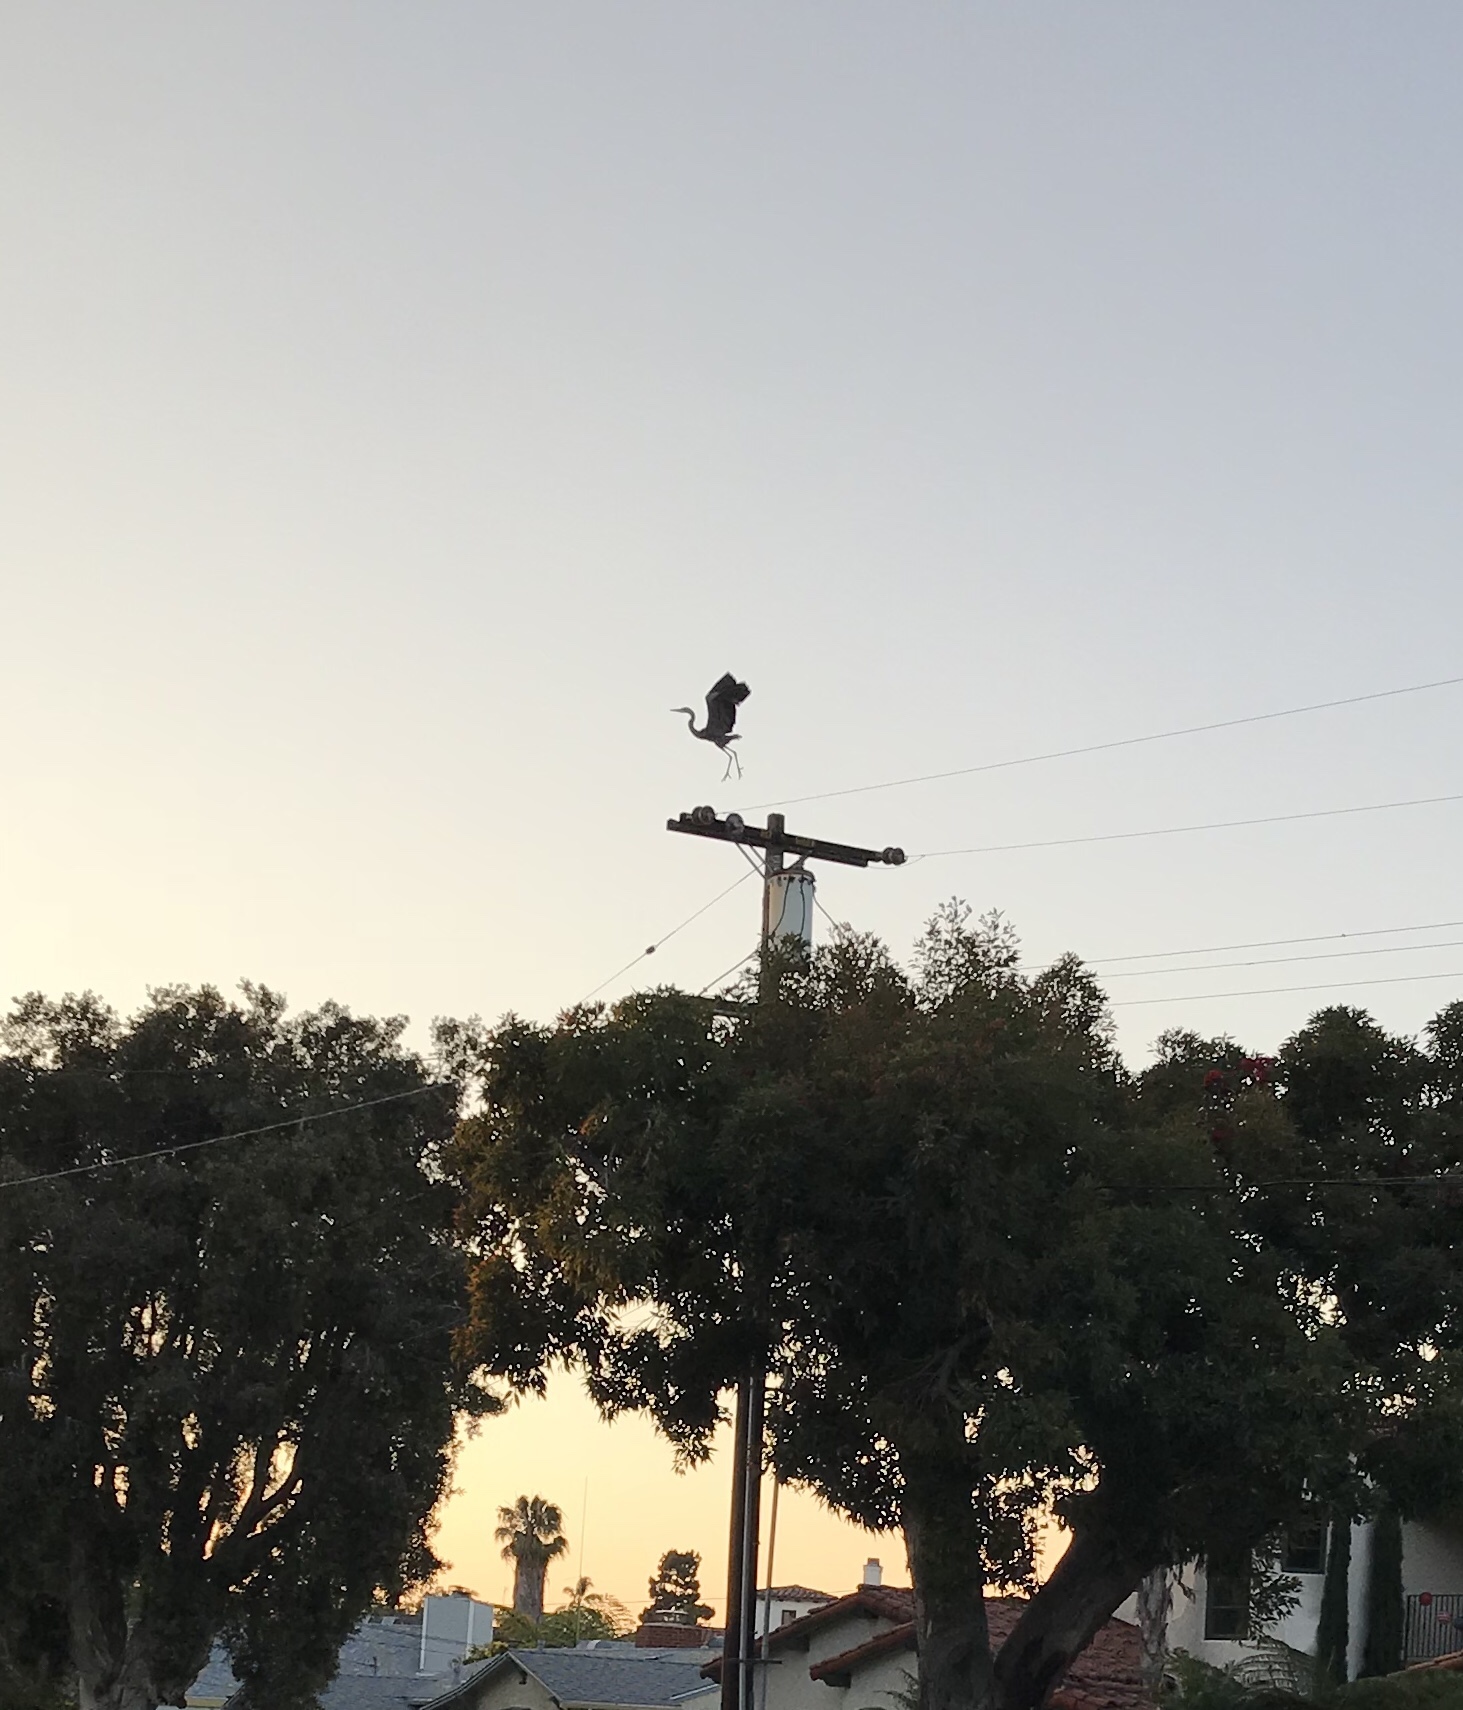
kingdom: Animalia
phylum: Chordata
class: Aves
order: Pelecaniformes
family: Ardeidae
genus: Ardea
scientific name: Ardea herodias
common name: Great blue heron
